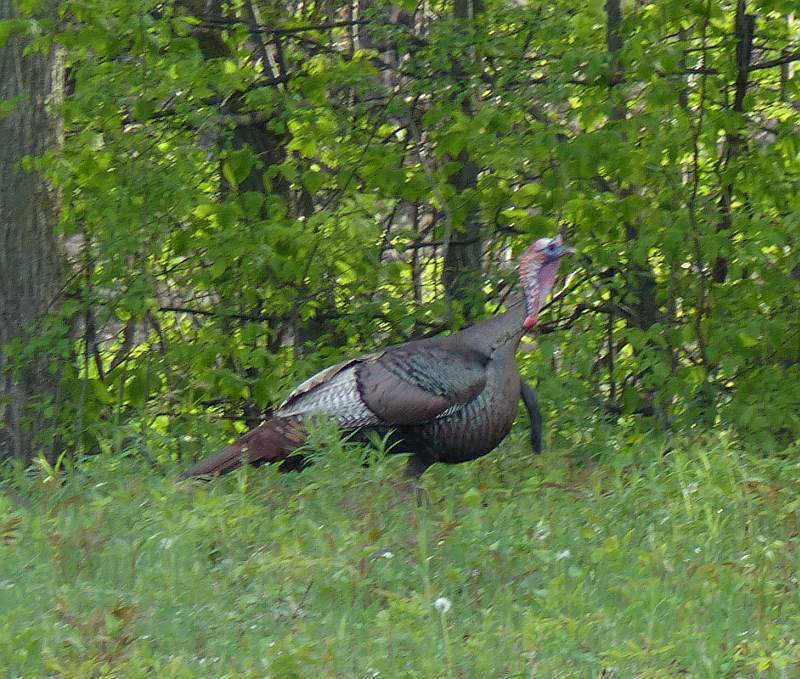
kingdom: Animalia
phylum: Chordata
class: Aves
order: Galliformes
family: Phasianidae
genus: Meleagris
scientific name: Meleagris gallopavo
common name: Wild turkey
